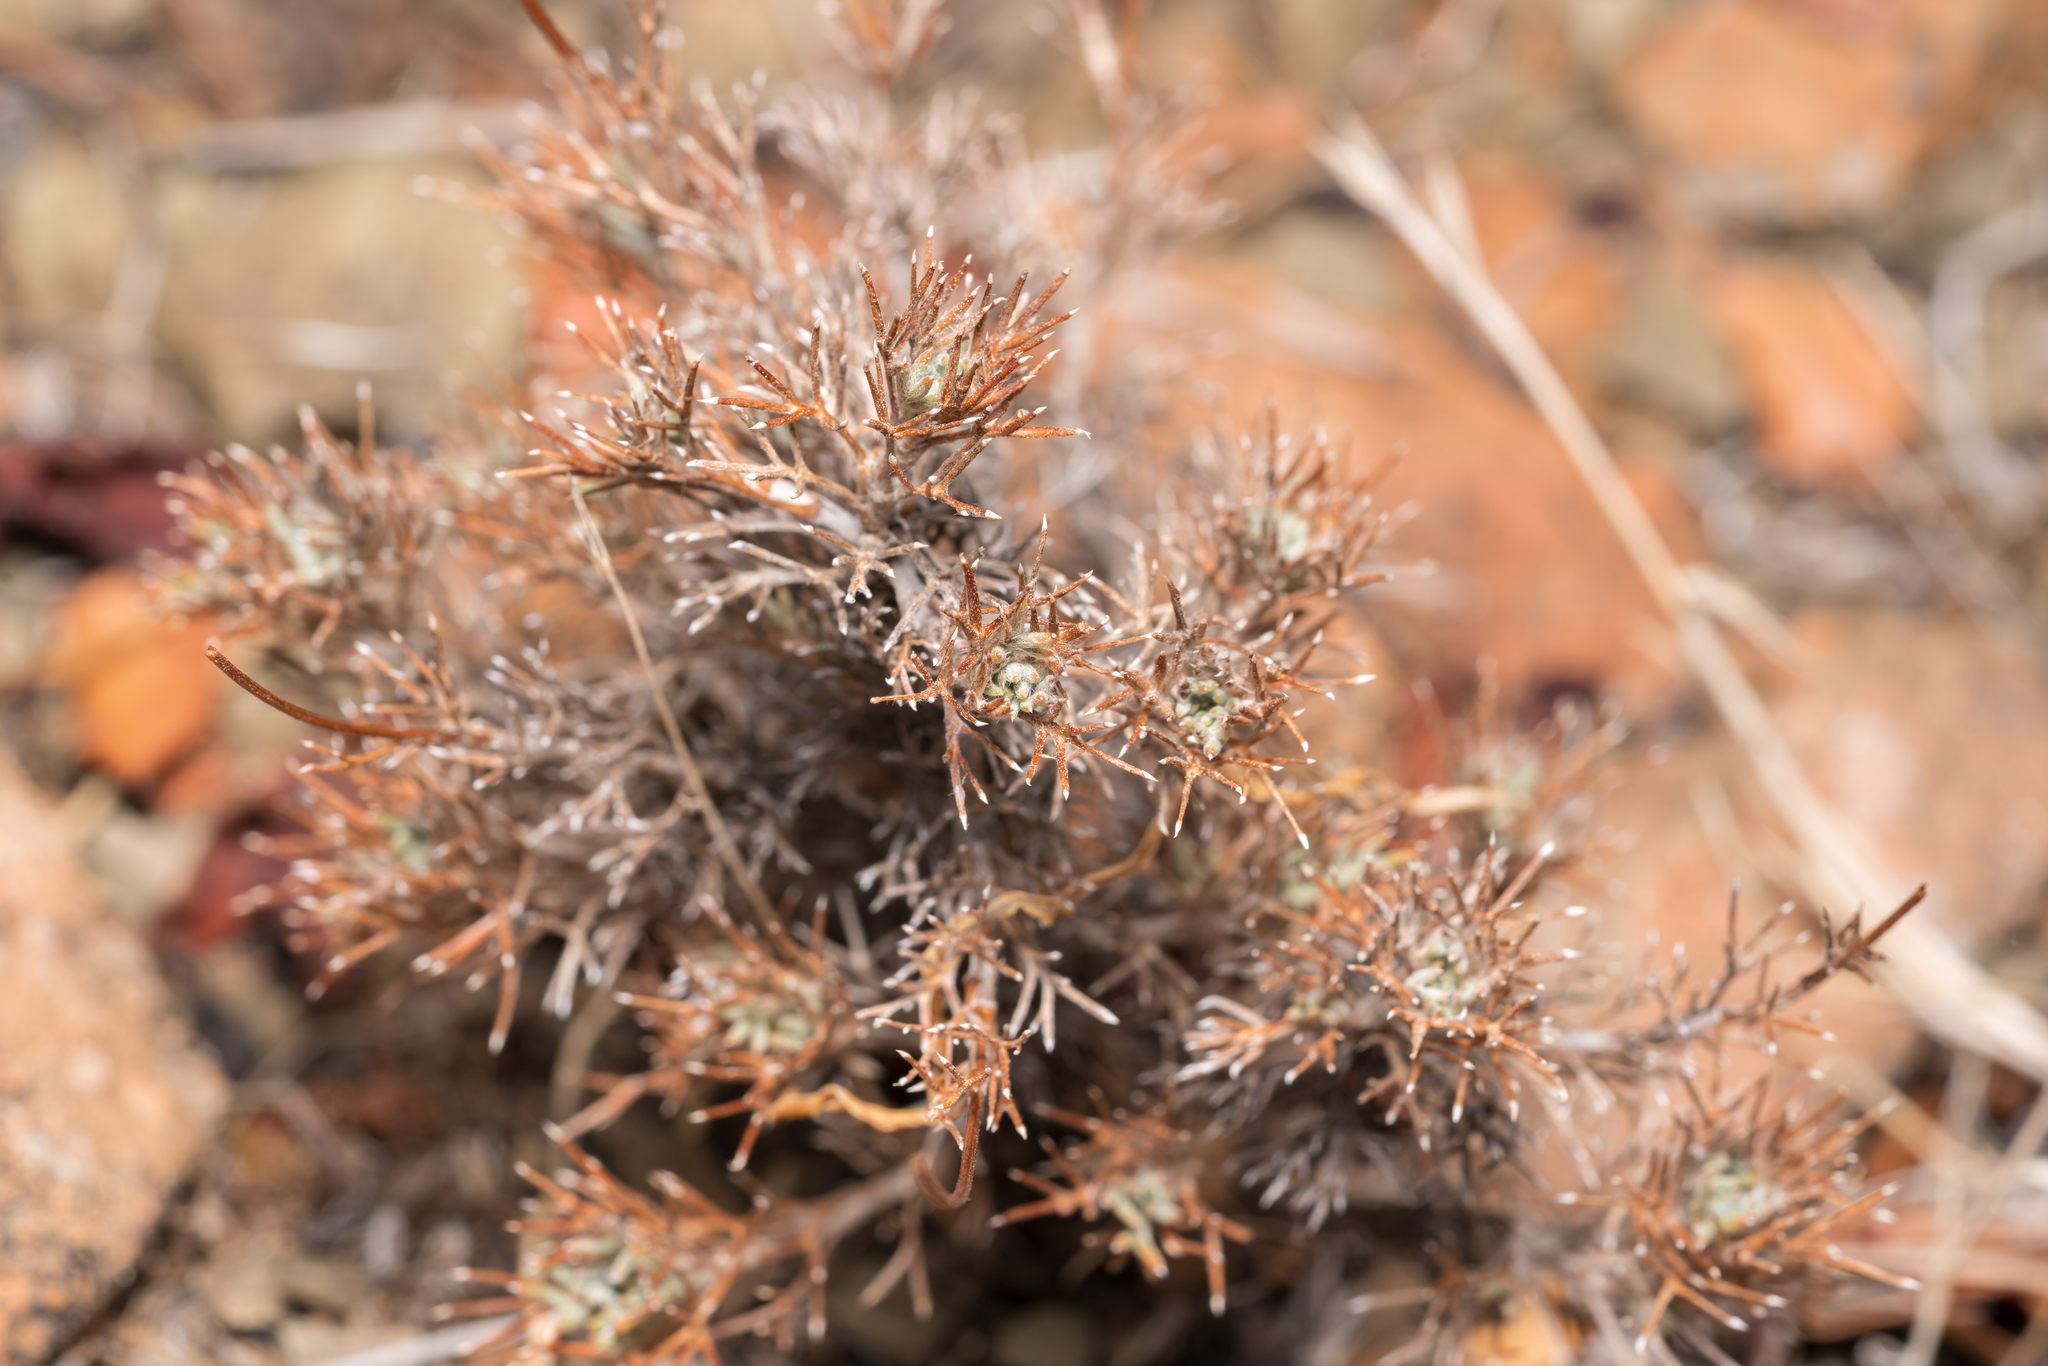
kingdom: Plantae
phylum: Tracheophyta
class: Magnoliopsida
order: Asterales
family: Asteraceae
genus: Anthemis
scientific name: Anthemis rhodensis
